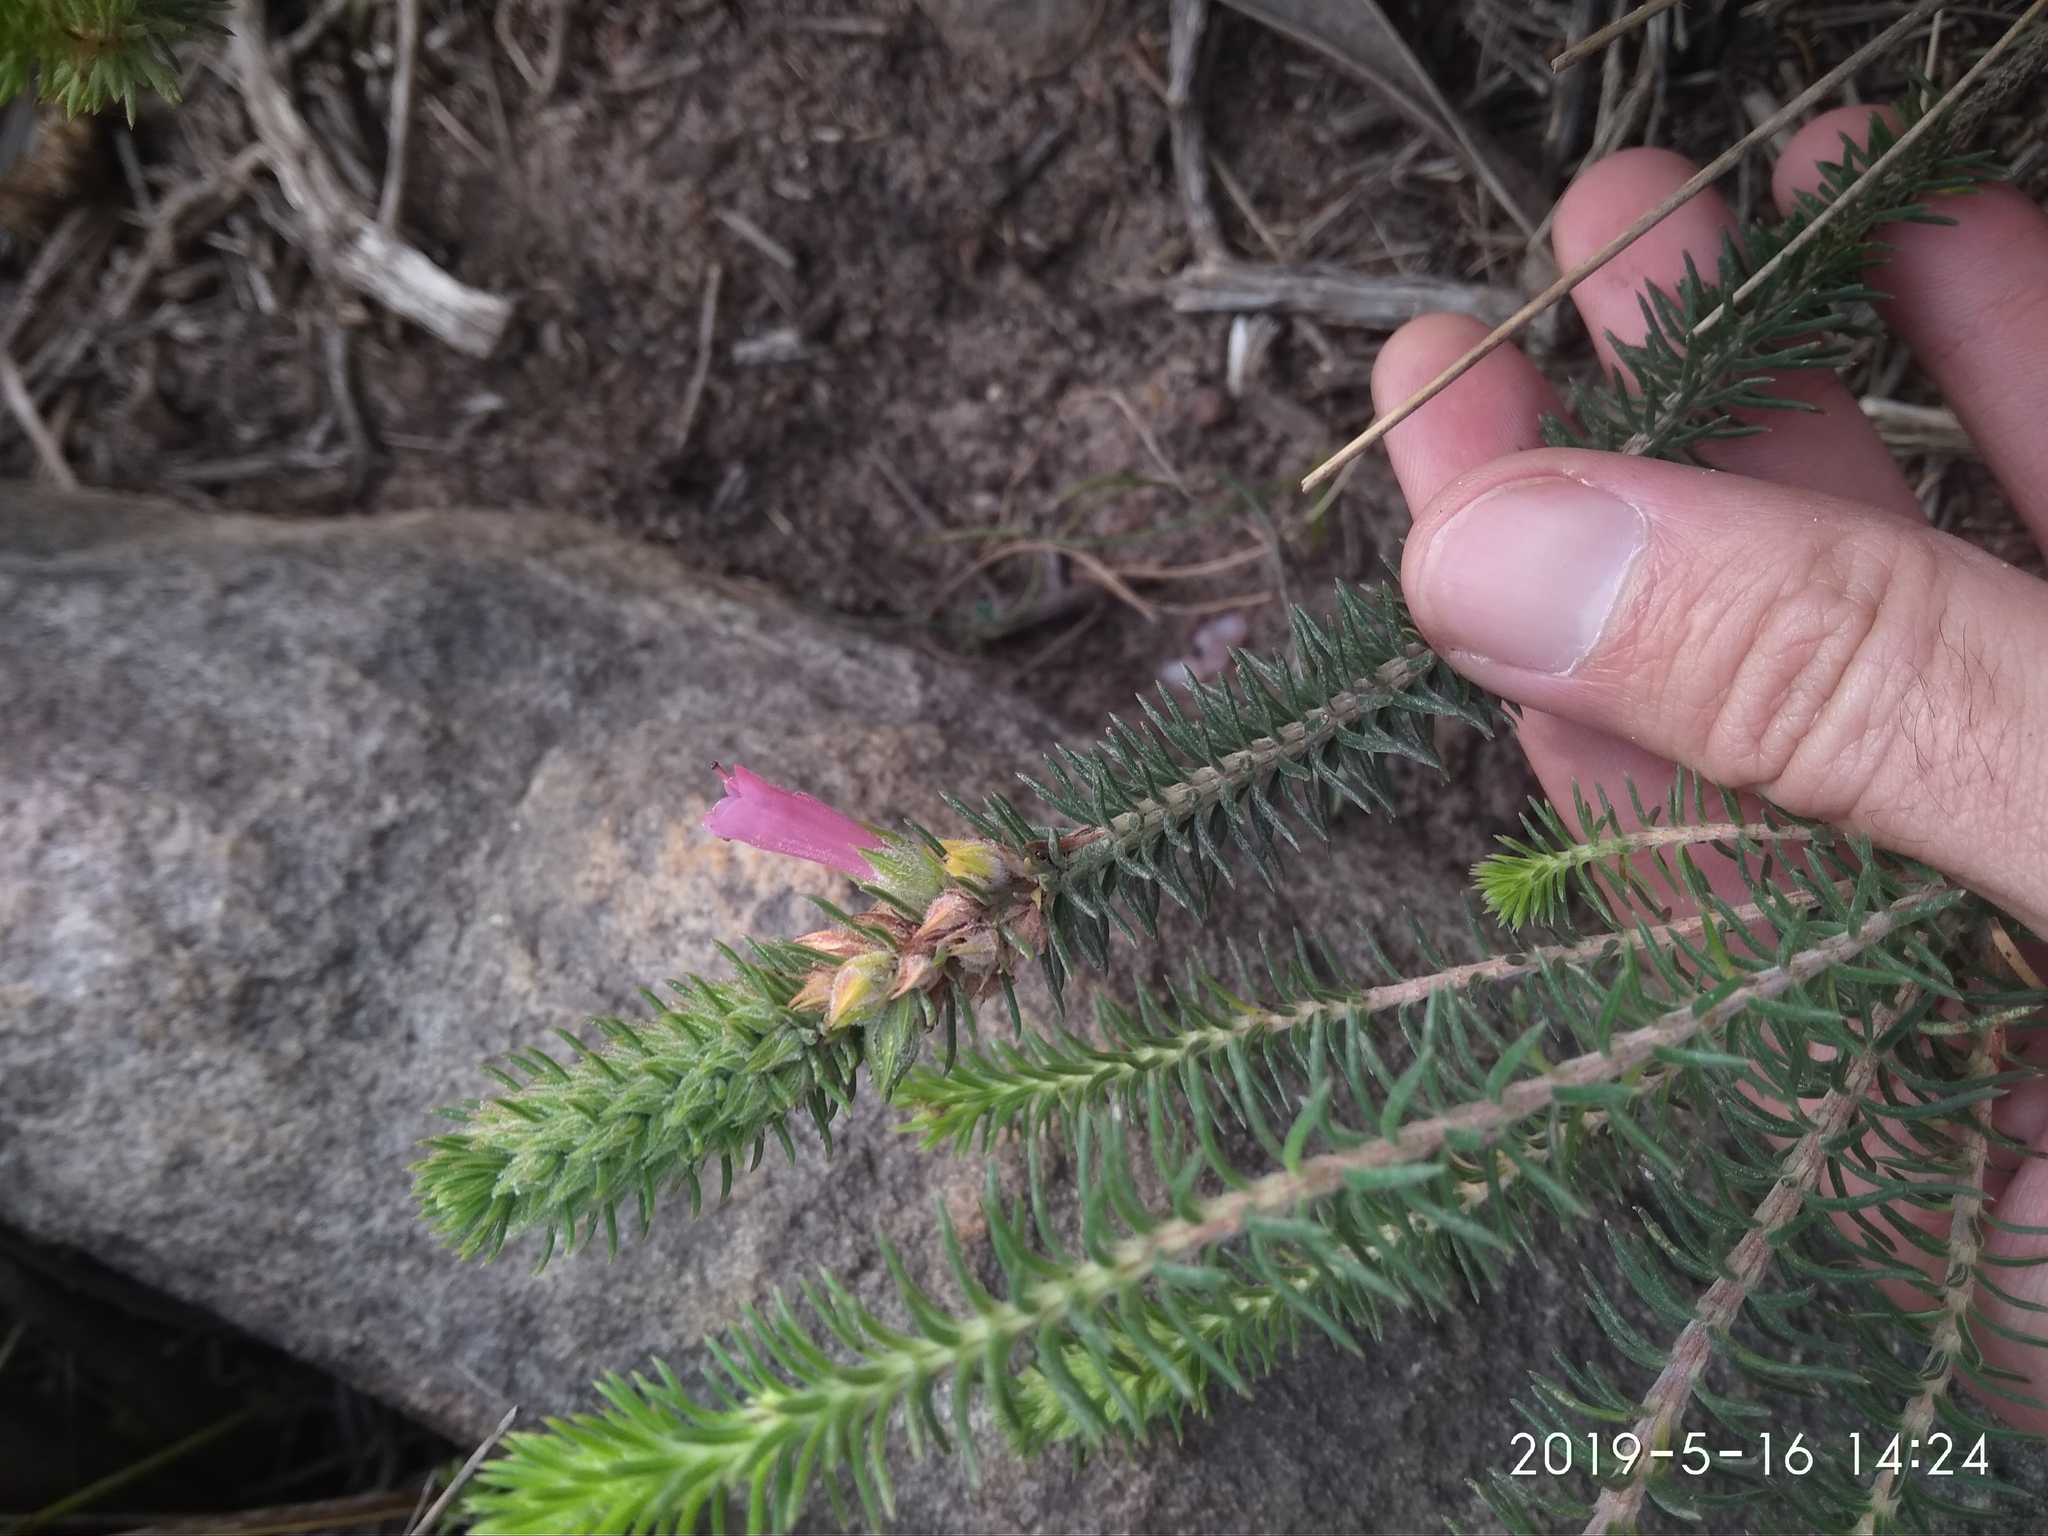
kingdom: Plantae
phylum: Tracheophyta
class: Magnoliopsida
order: Ericales
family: Ericaceae
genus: Erica
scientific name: Erica abietina
